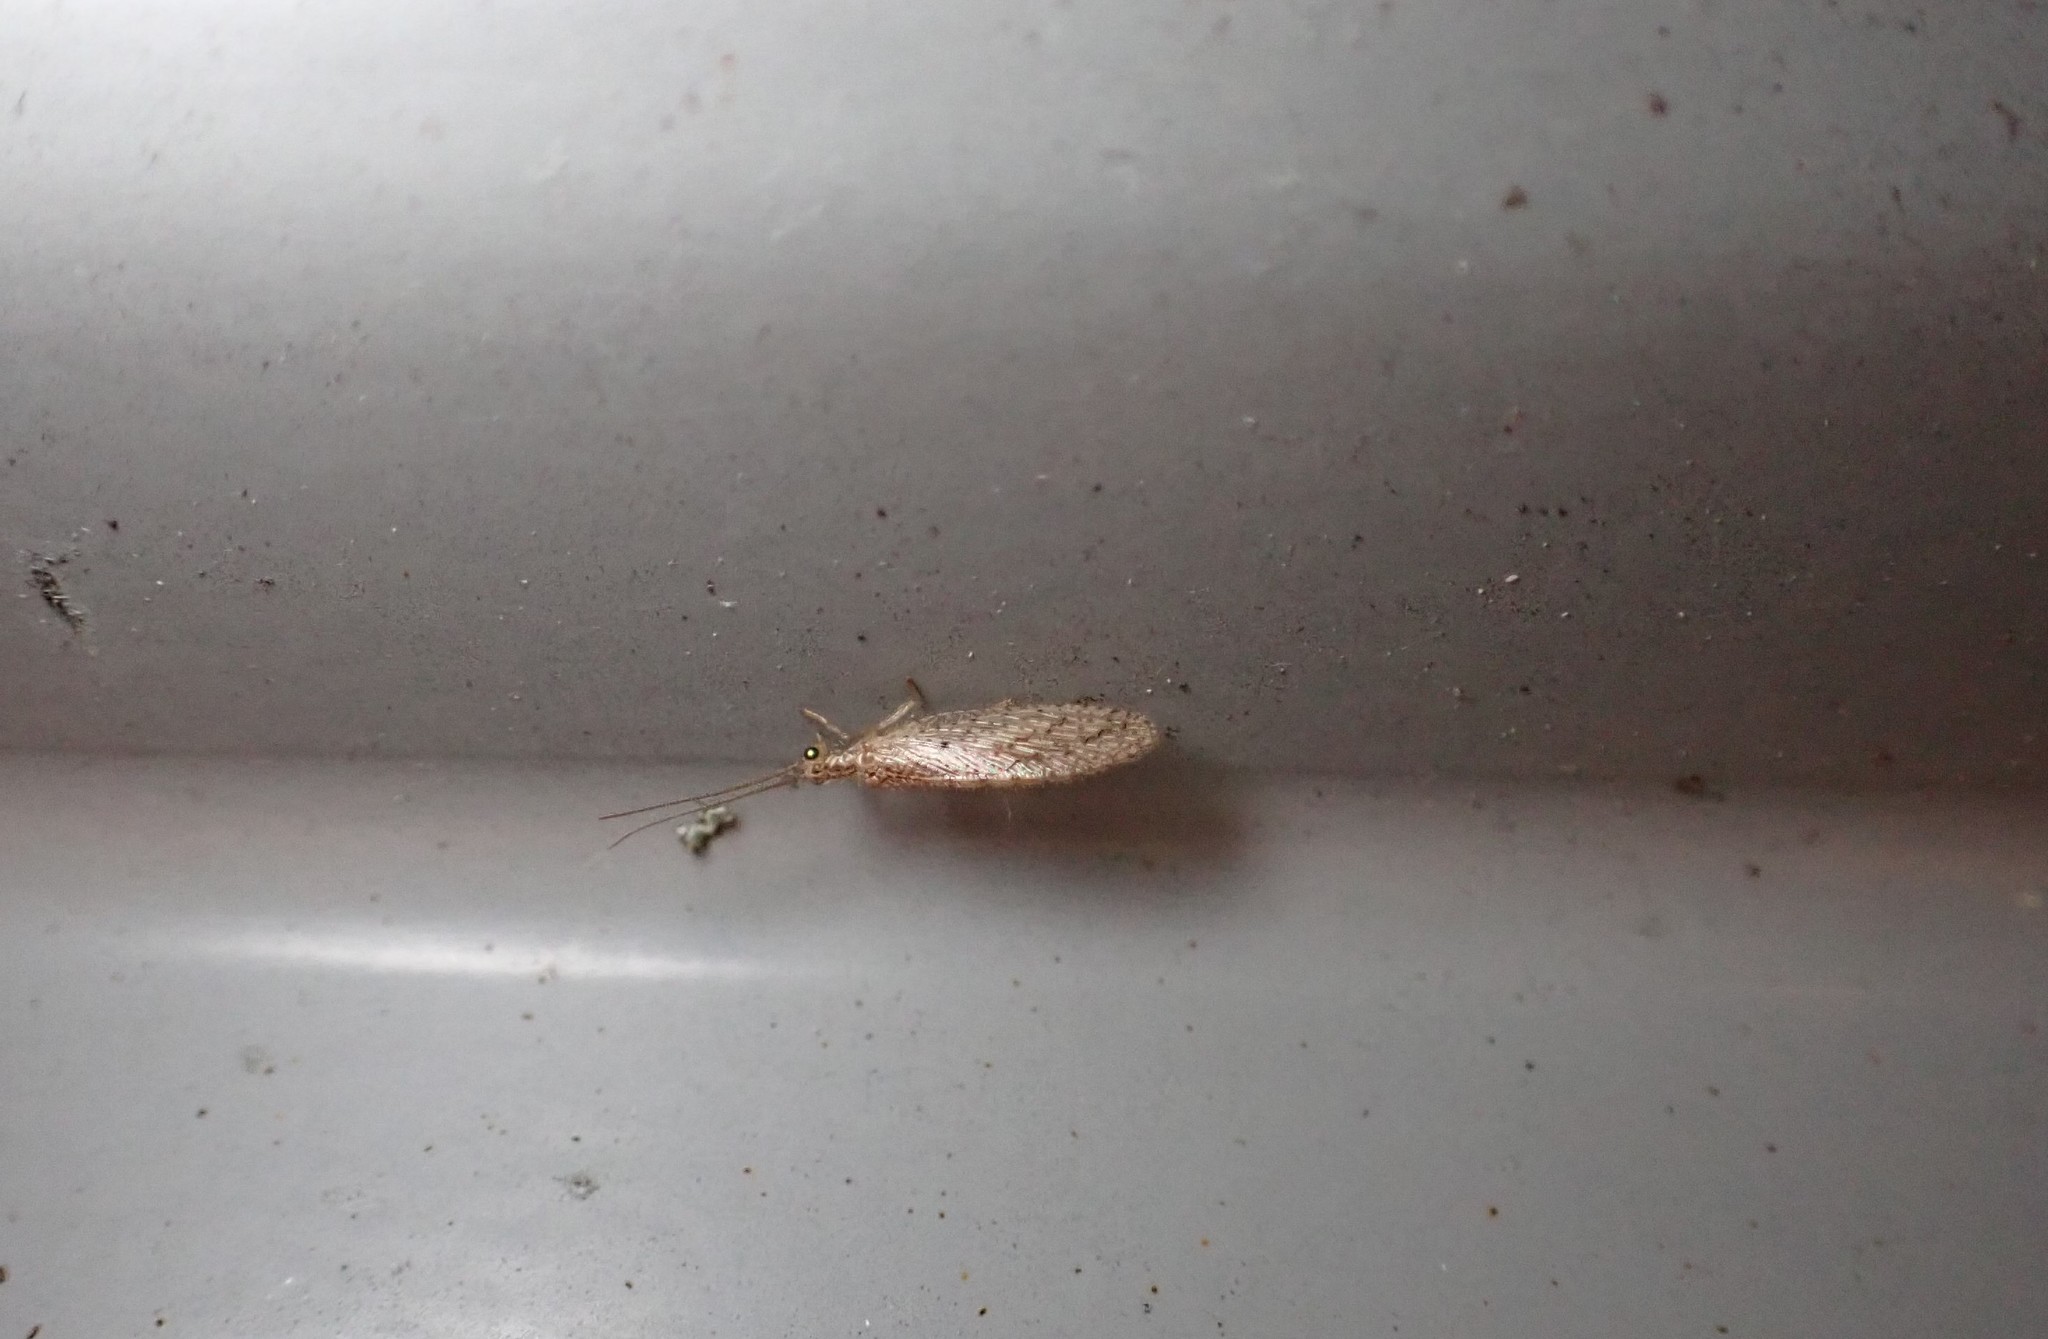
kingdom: Animalia
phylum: Arthropoda
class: Insecta
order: Neuroptera
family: Hemerobiidae
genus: Micromus
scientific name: Micromus tasmaniae
